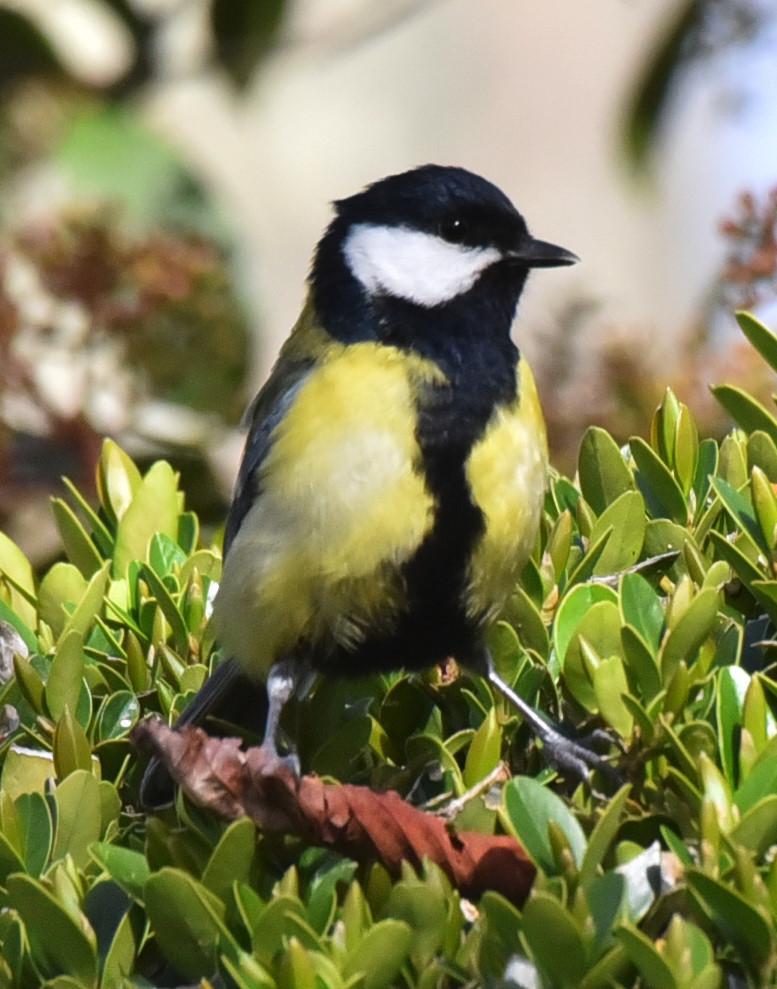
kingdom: Animalia
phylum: Chordata
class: Aves
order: Passeriformes
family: Paridae
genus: Parus
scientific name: Parus major
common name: Great tit
